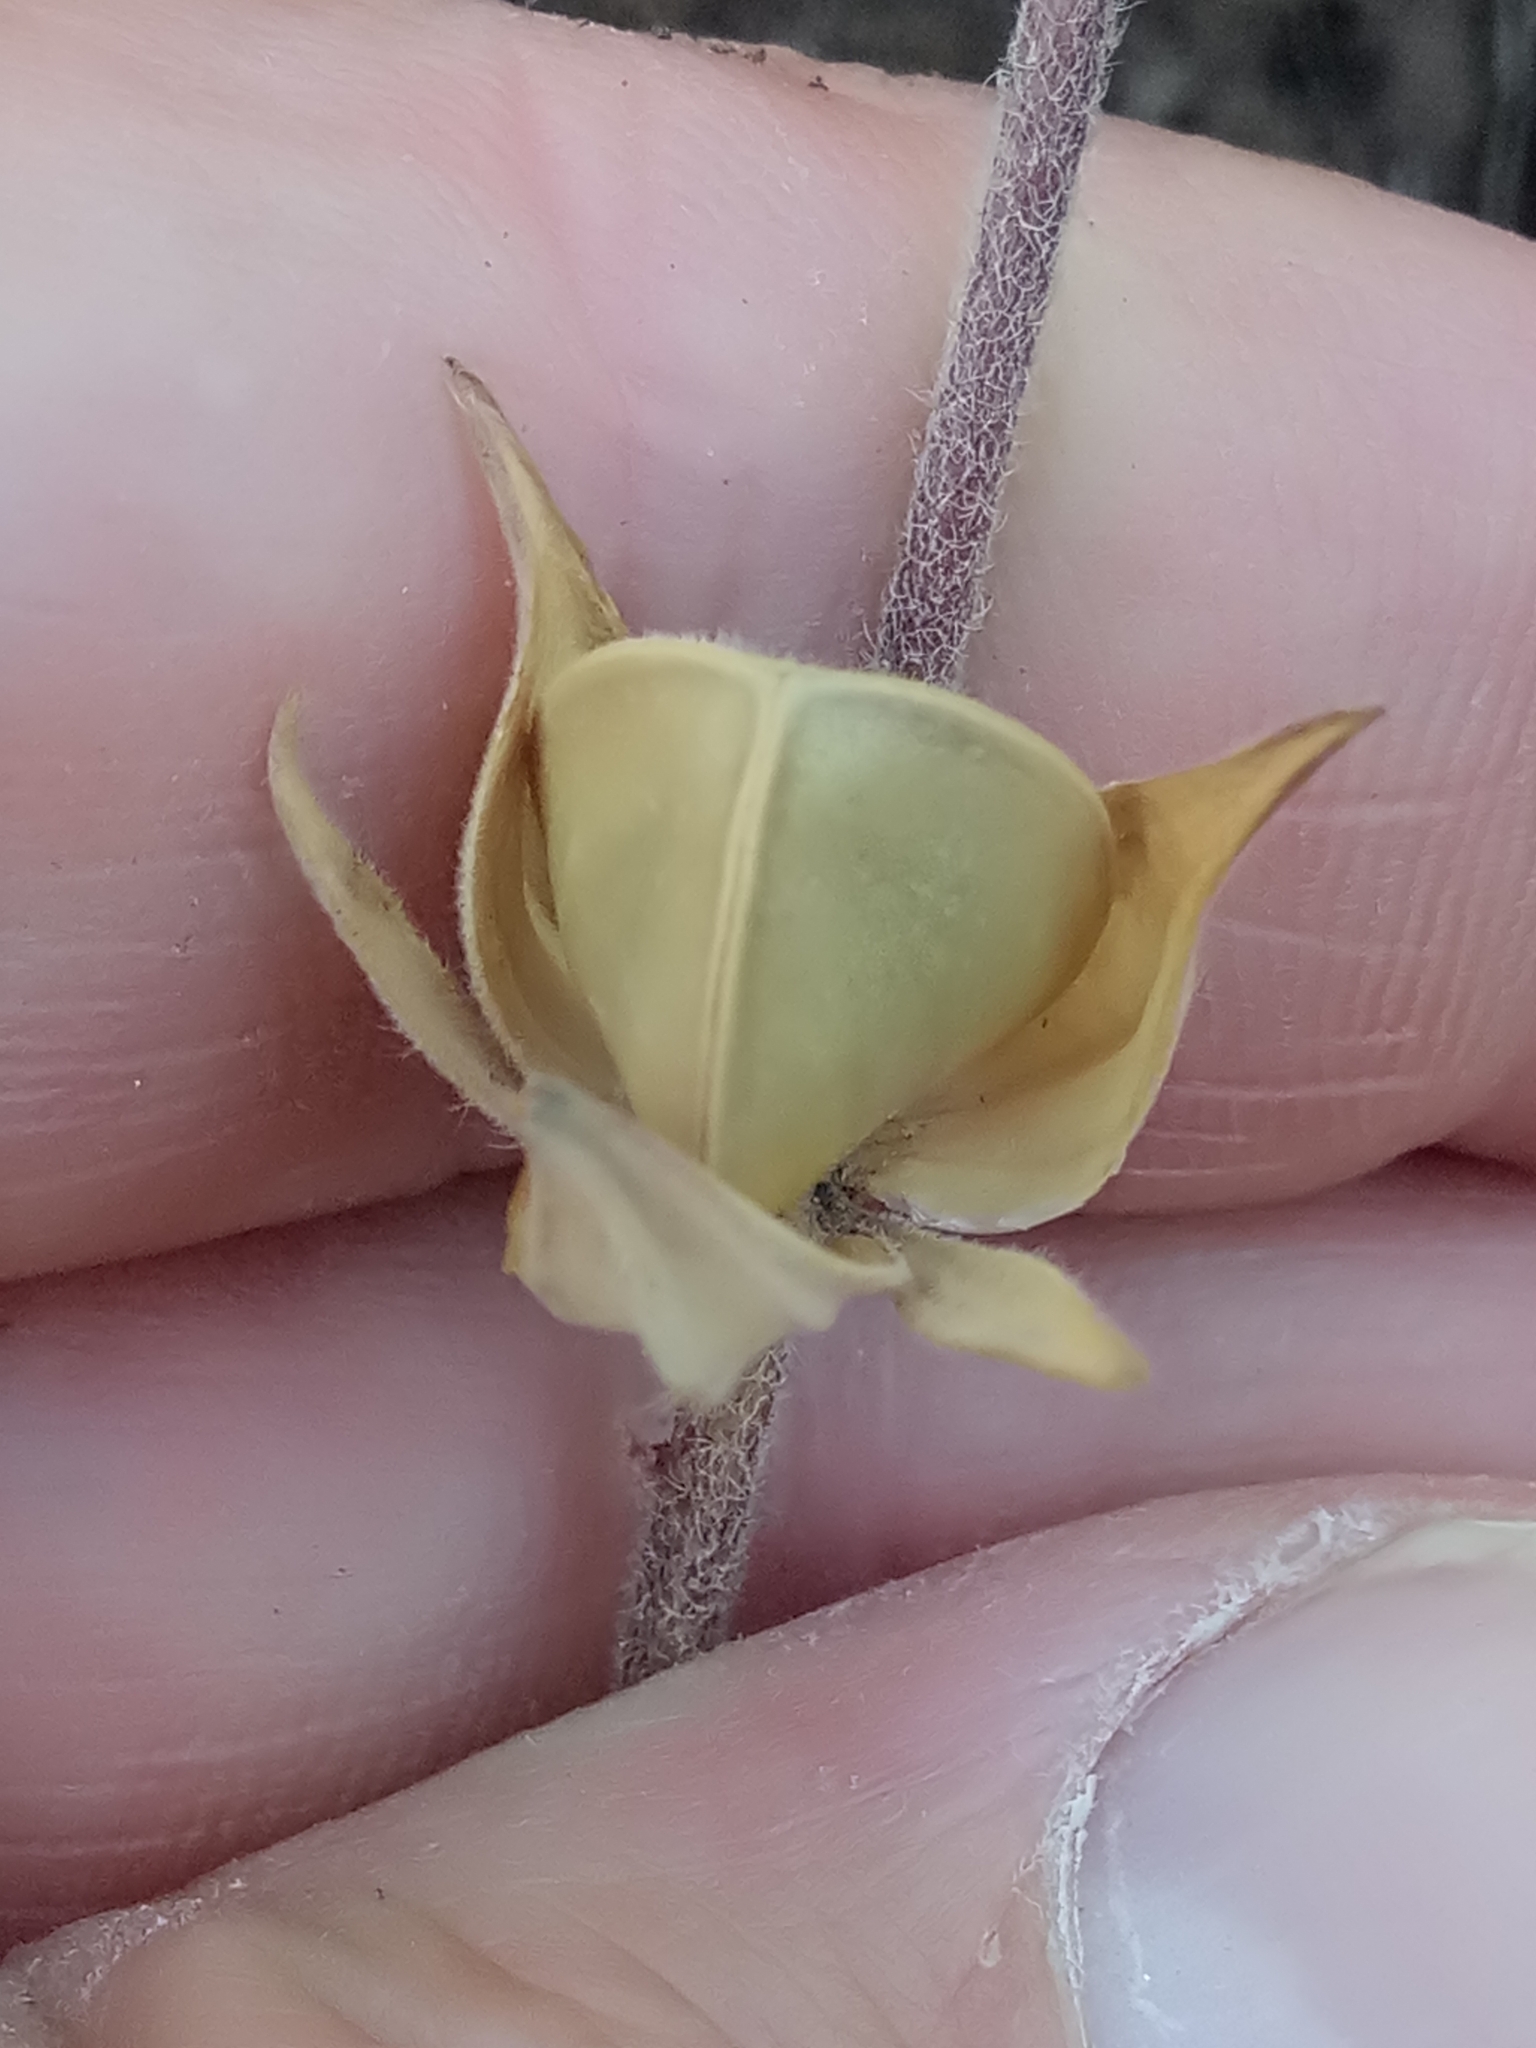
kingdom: Plantae
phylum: Tracheophyta
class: Magnoliopsida
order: Malvales
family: Cistaceae
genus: Helianthemum
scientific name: Helianthemum ledifolium
